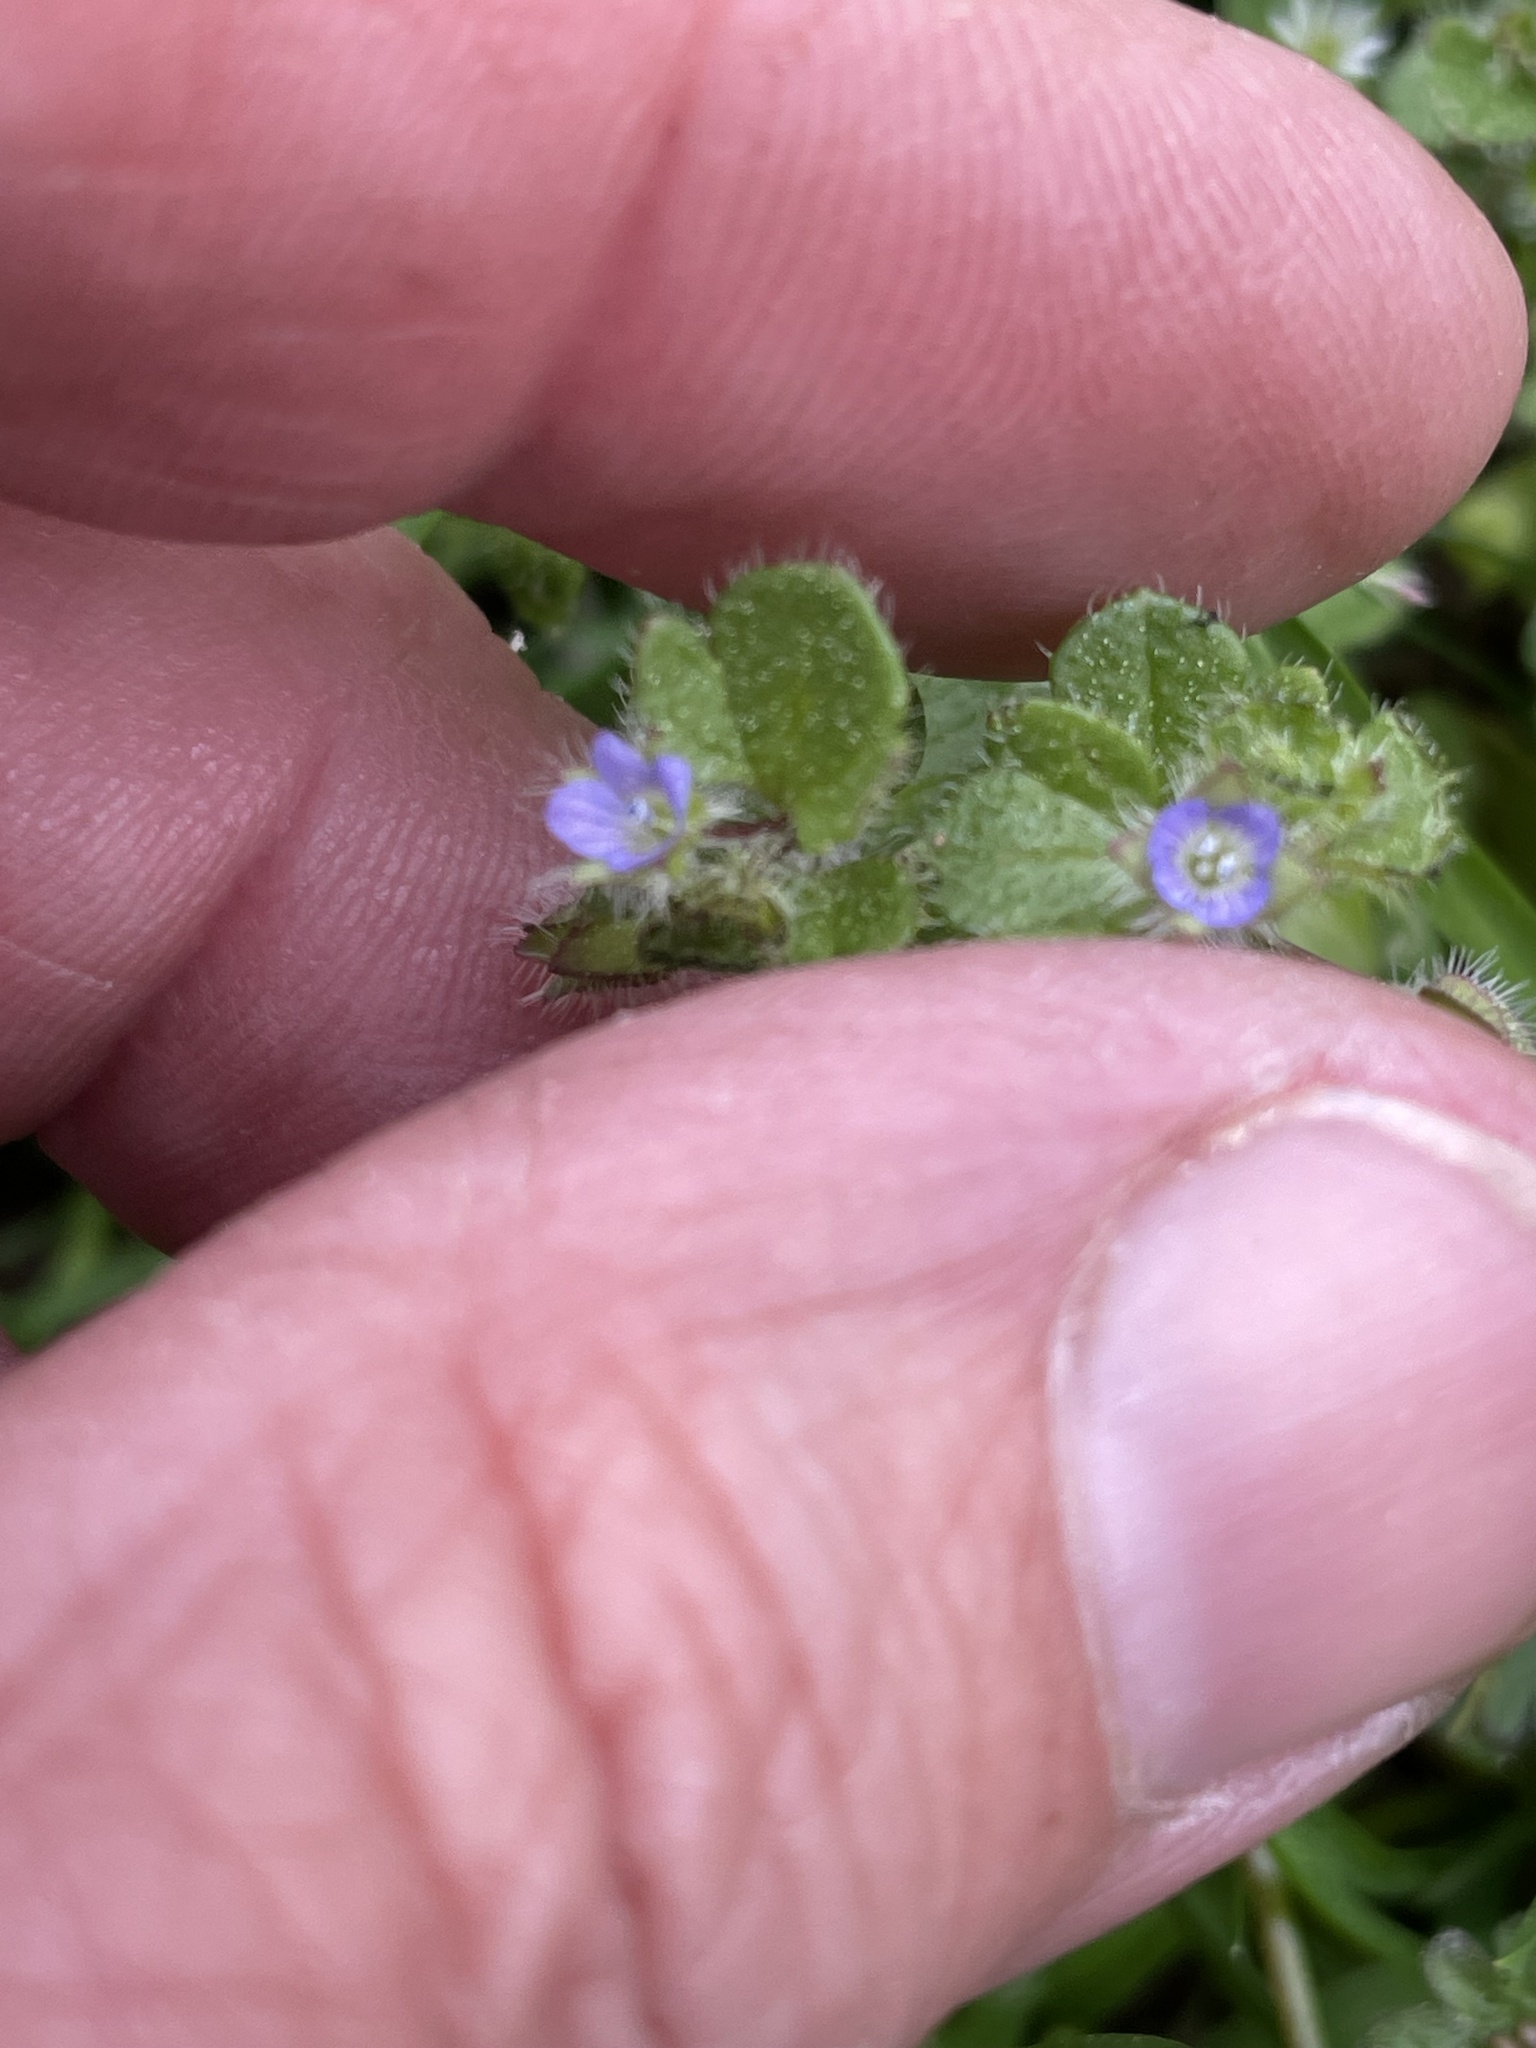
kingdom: Plantae
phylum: Tracheophyta
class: Magnoliopsida
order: Lamiales
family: Plantaginaceae
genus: Veronica
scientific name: Veronica hederifolia
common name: Ivy-leaved speedwell
